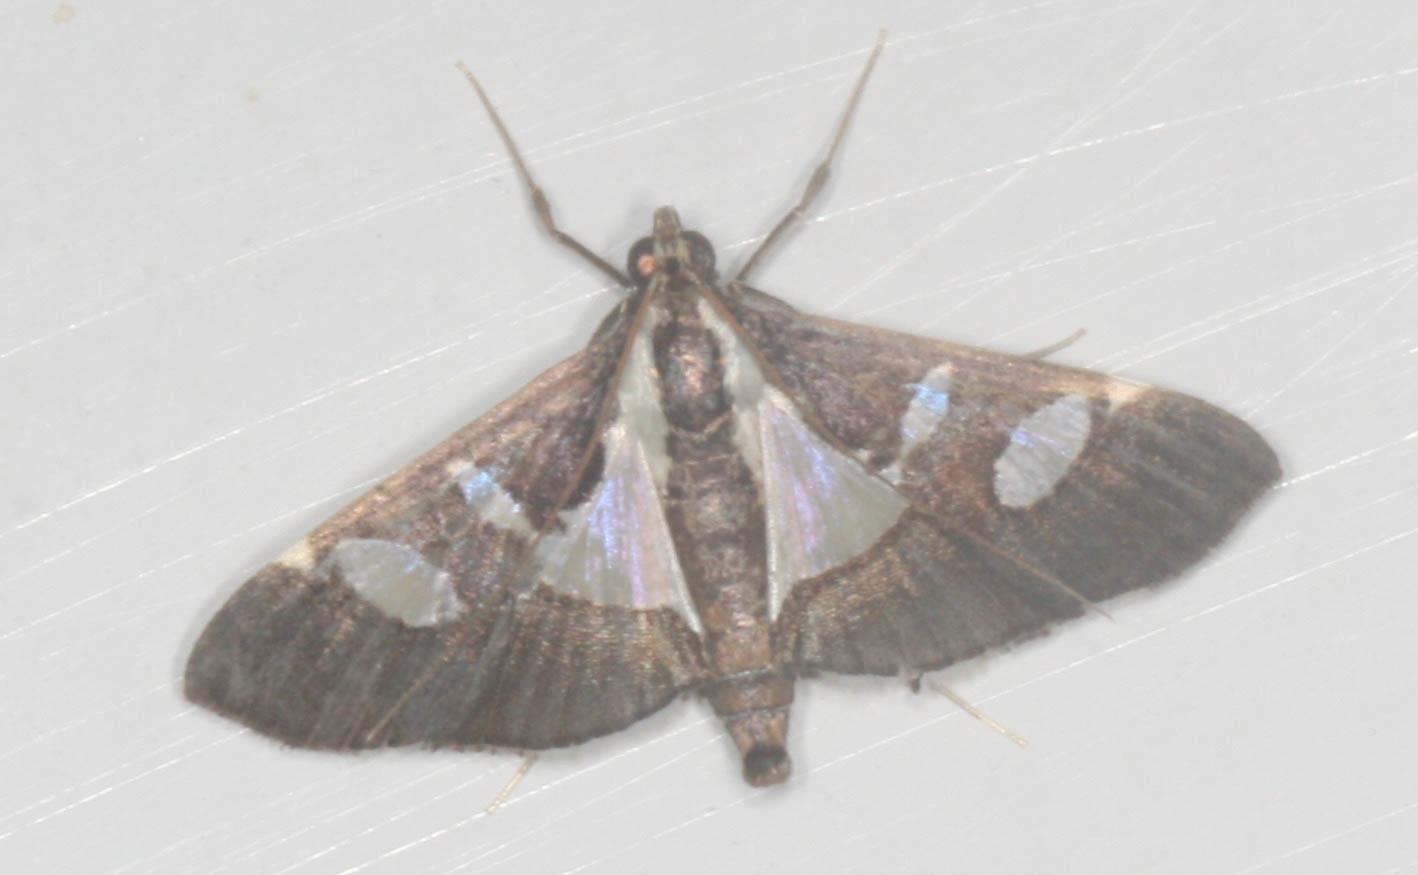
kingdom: Animalia
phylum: Arthropoda
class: Insecta
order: Lepidoptera
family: Crambidae
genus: Glyphodes
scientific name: Glyphodes bivitralis
